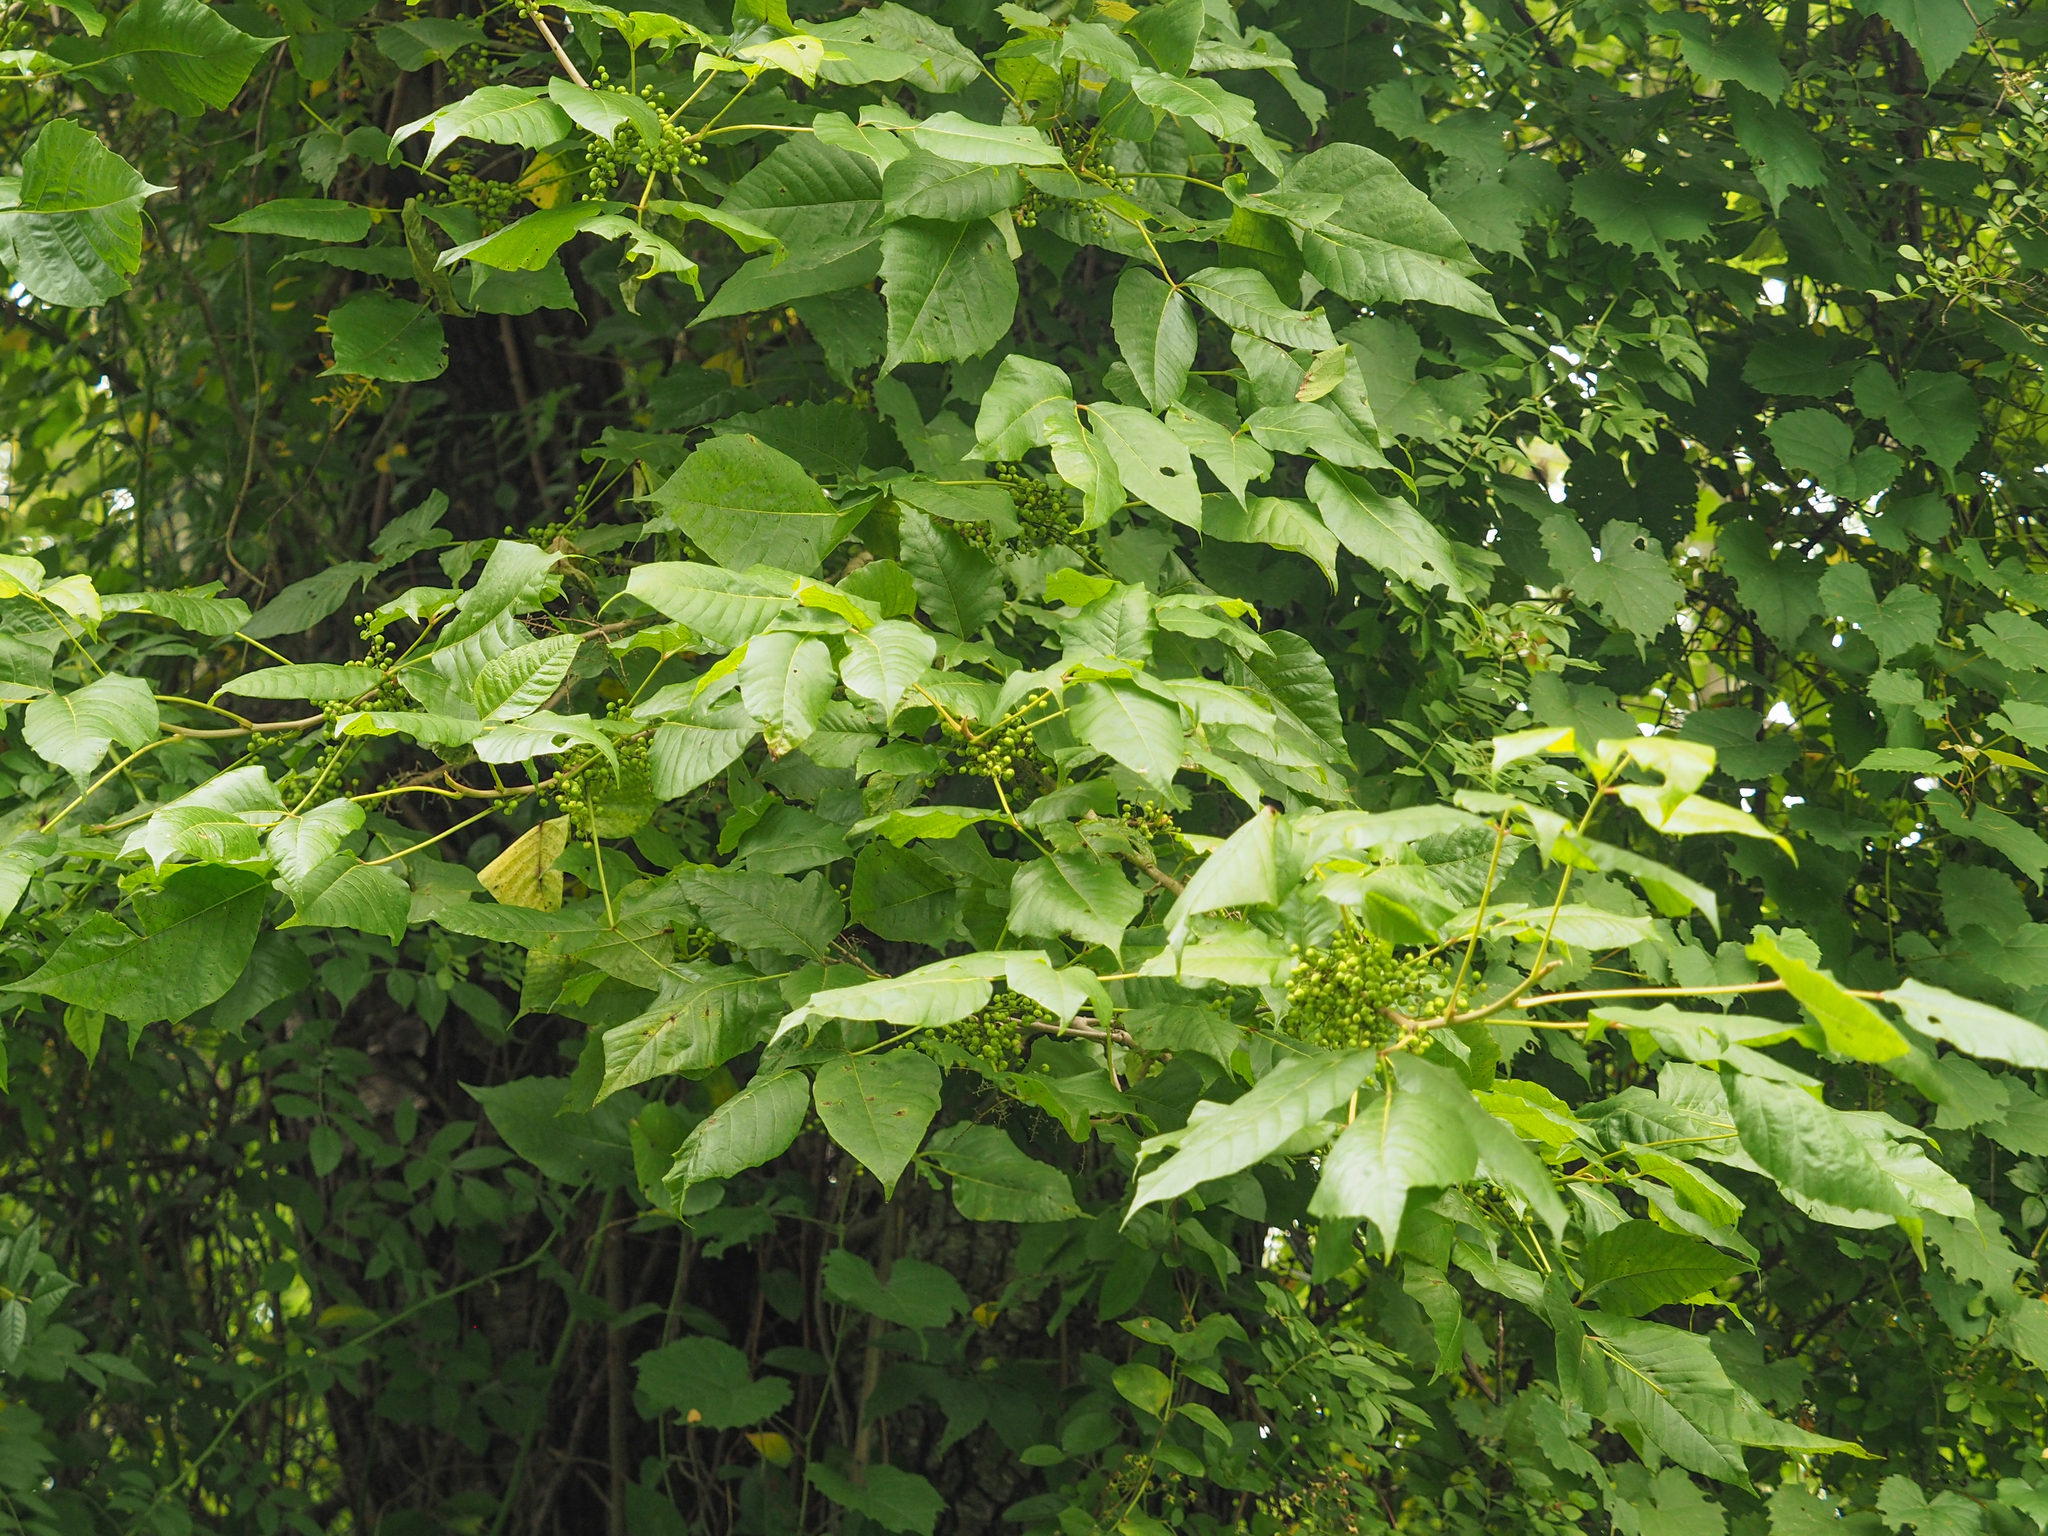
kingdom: Plantae
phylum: Tracheophyta
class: Magnoliopsida
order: Sapindales
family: Anacardiaceae
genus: Toxicodendron
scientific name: Toxicodendron radicans
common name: Poison ivy
